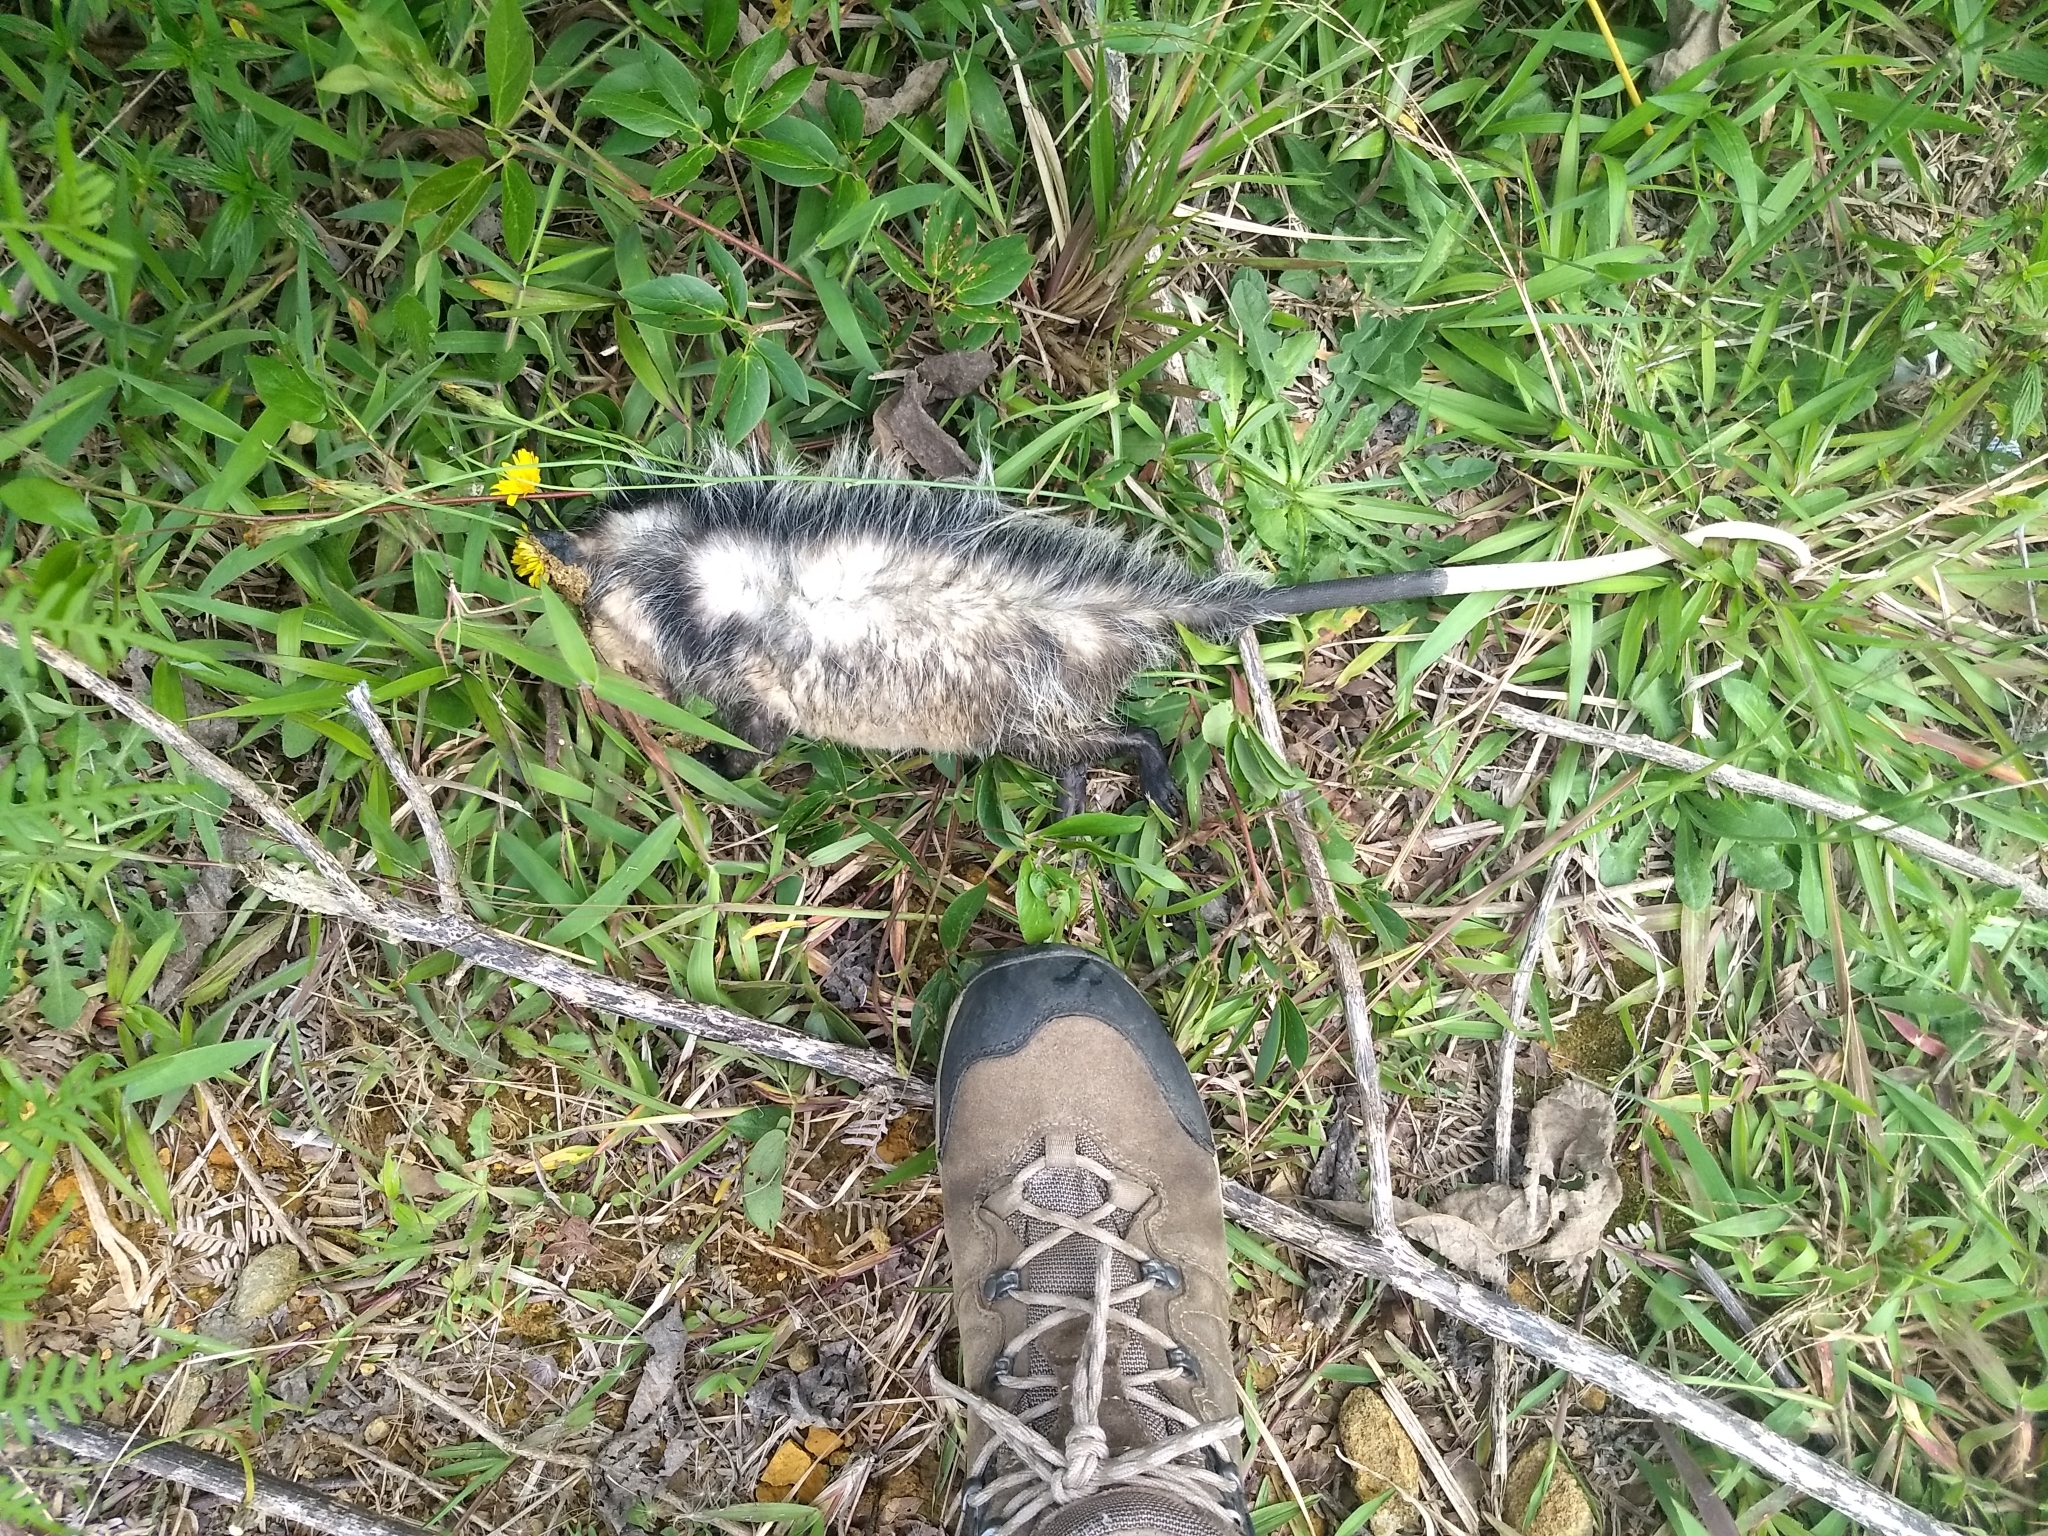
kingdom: Animalia
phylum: Chordata
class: Mammalia
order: Didelphimorphia
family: Didelphidae
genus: Didelphis
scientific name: Didelphis marsupialis
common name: Common opossum
